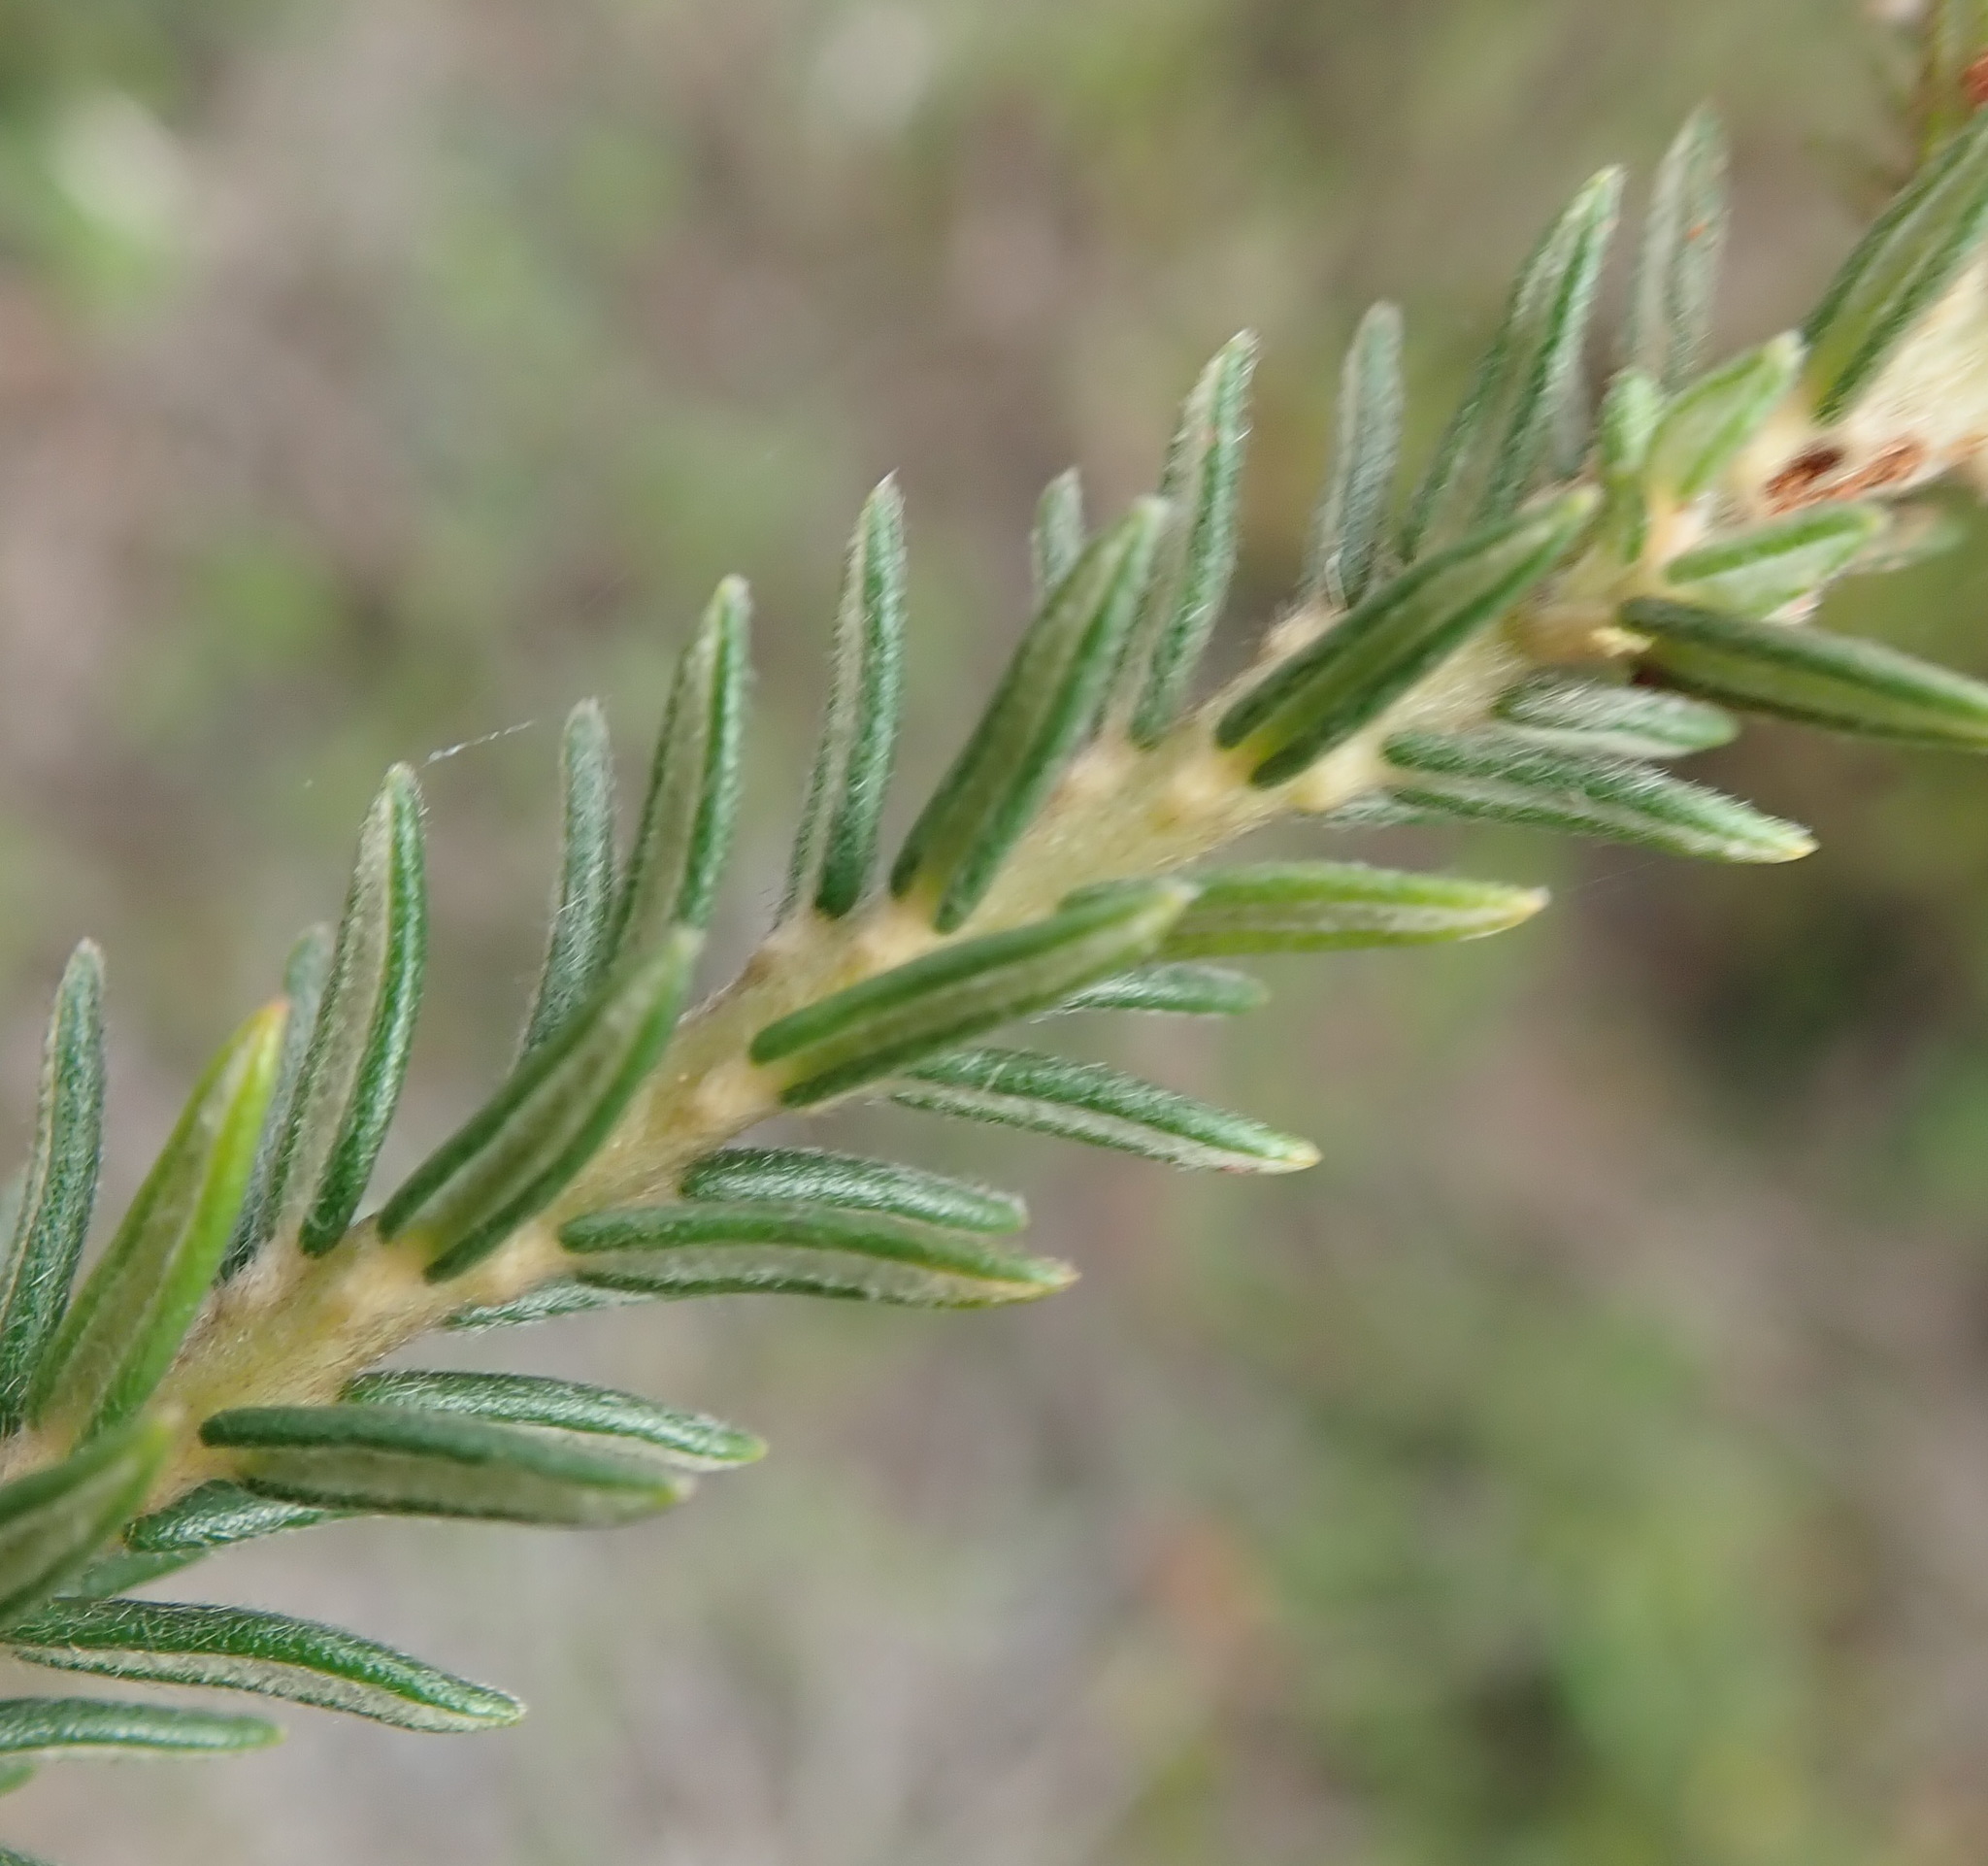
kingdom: Plantae
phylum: Tracheophyta
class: Magnoliopsida
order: Rosales
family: Rhamnaceae
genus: Phylica
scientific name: Phylica axillaris
